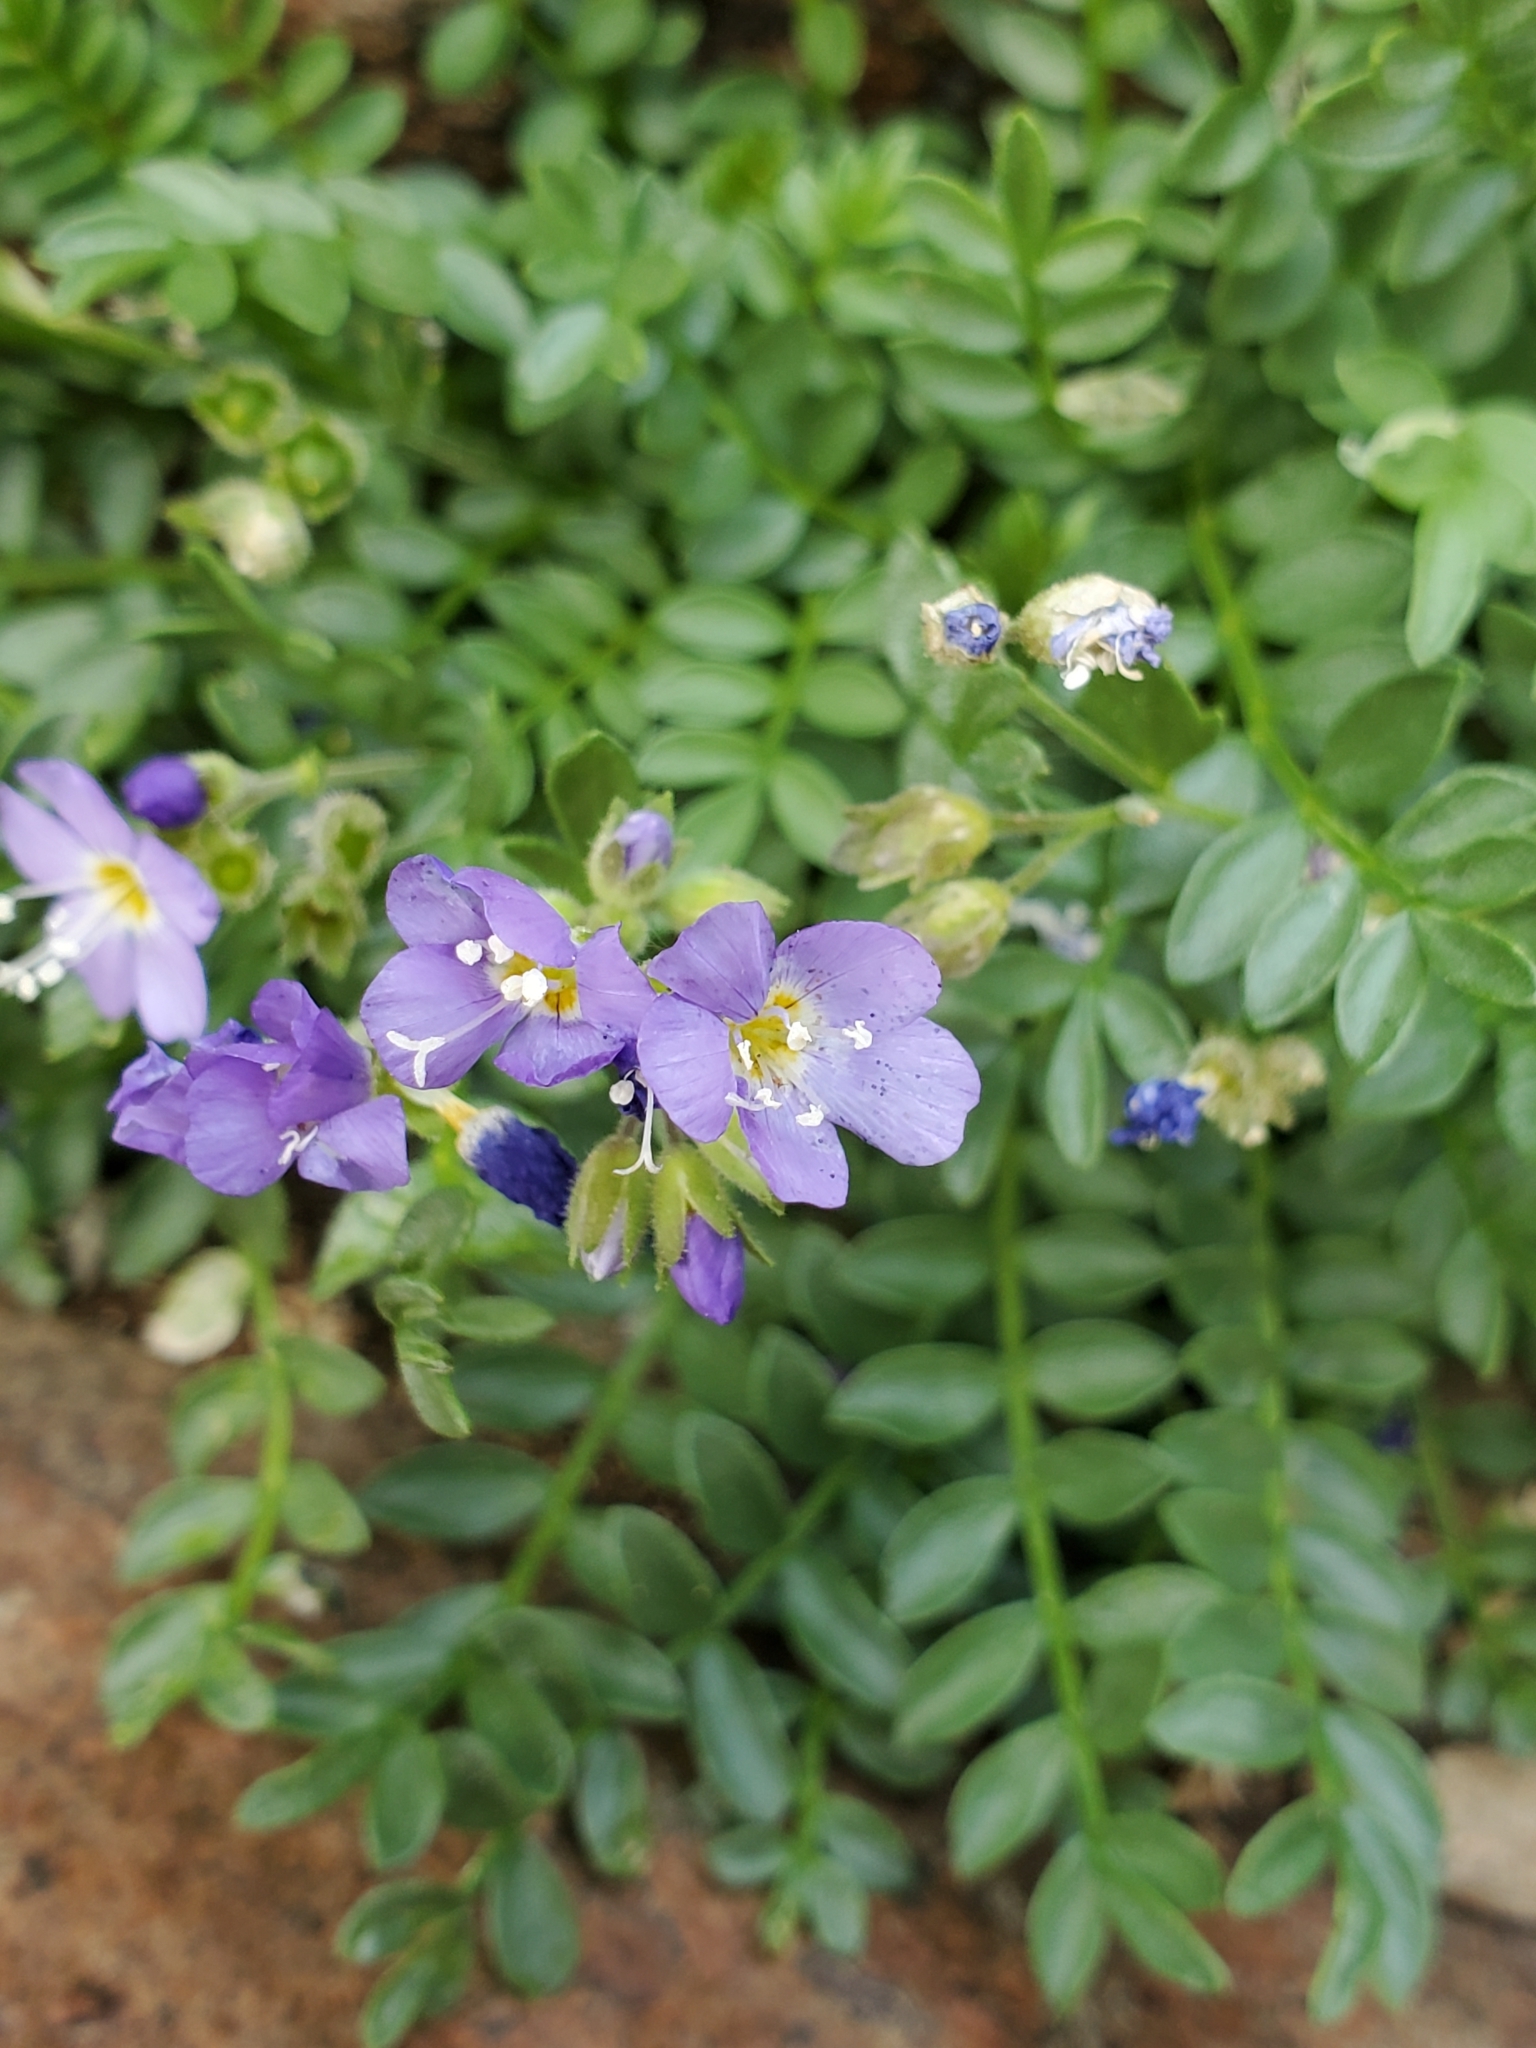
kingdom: Plantae
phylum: Tracheophyta
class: Magnoliopsida
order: Ericales
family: Polemoniaceae
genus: Polemonium
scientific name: Polemonium pulcherrimum
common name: Short jacob's-ladder
